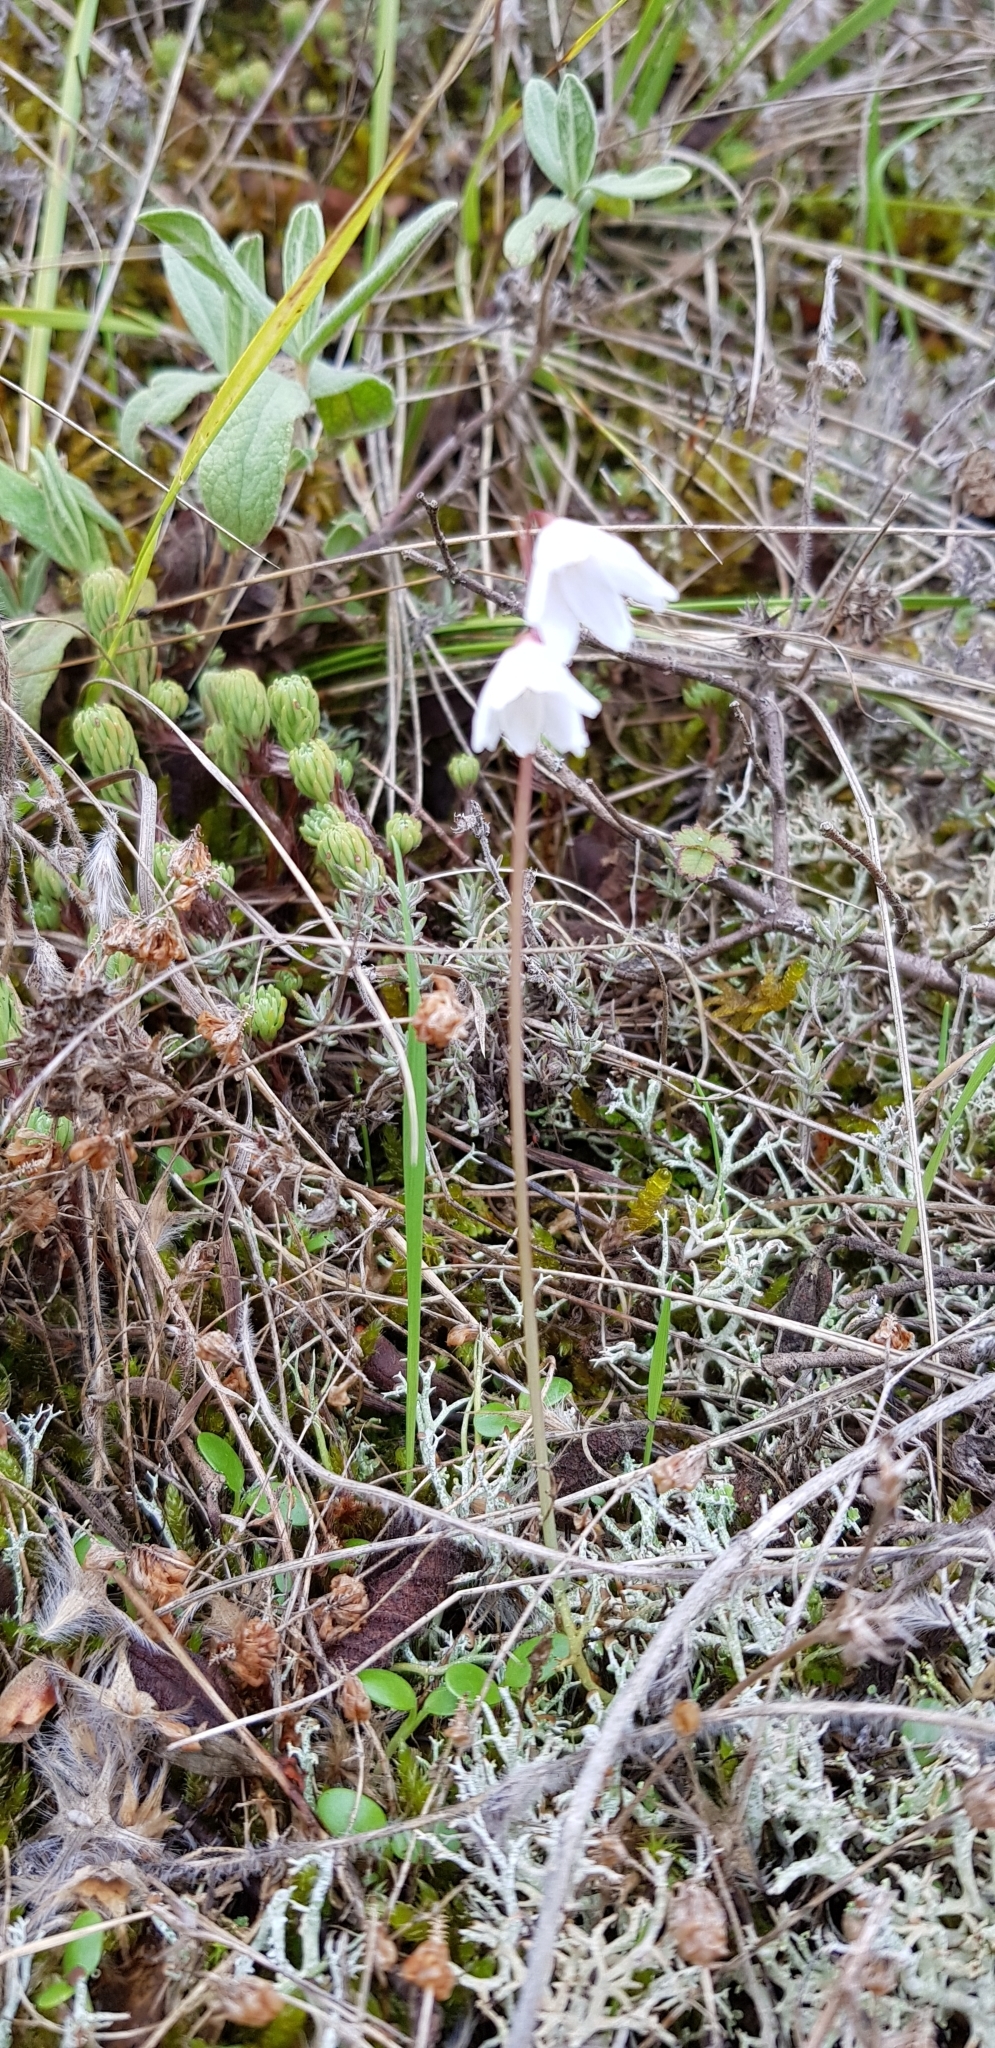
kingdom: Plantae
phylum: Tracheophyta
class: Liliopsida
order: Asparagales
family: Amaryllidaceae
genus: Acis
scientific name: Acis autumnalis
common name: Autumn snowflake
